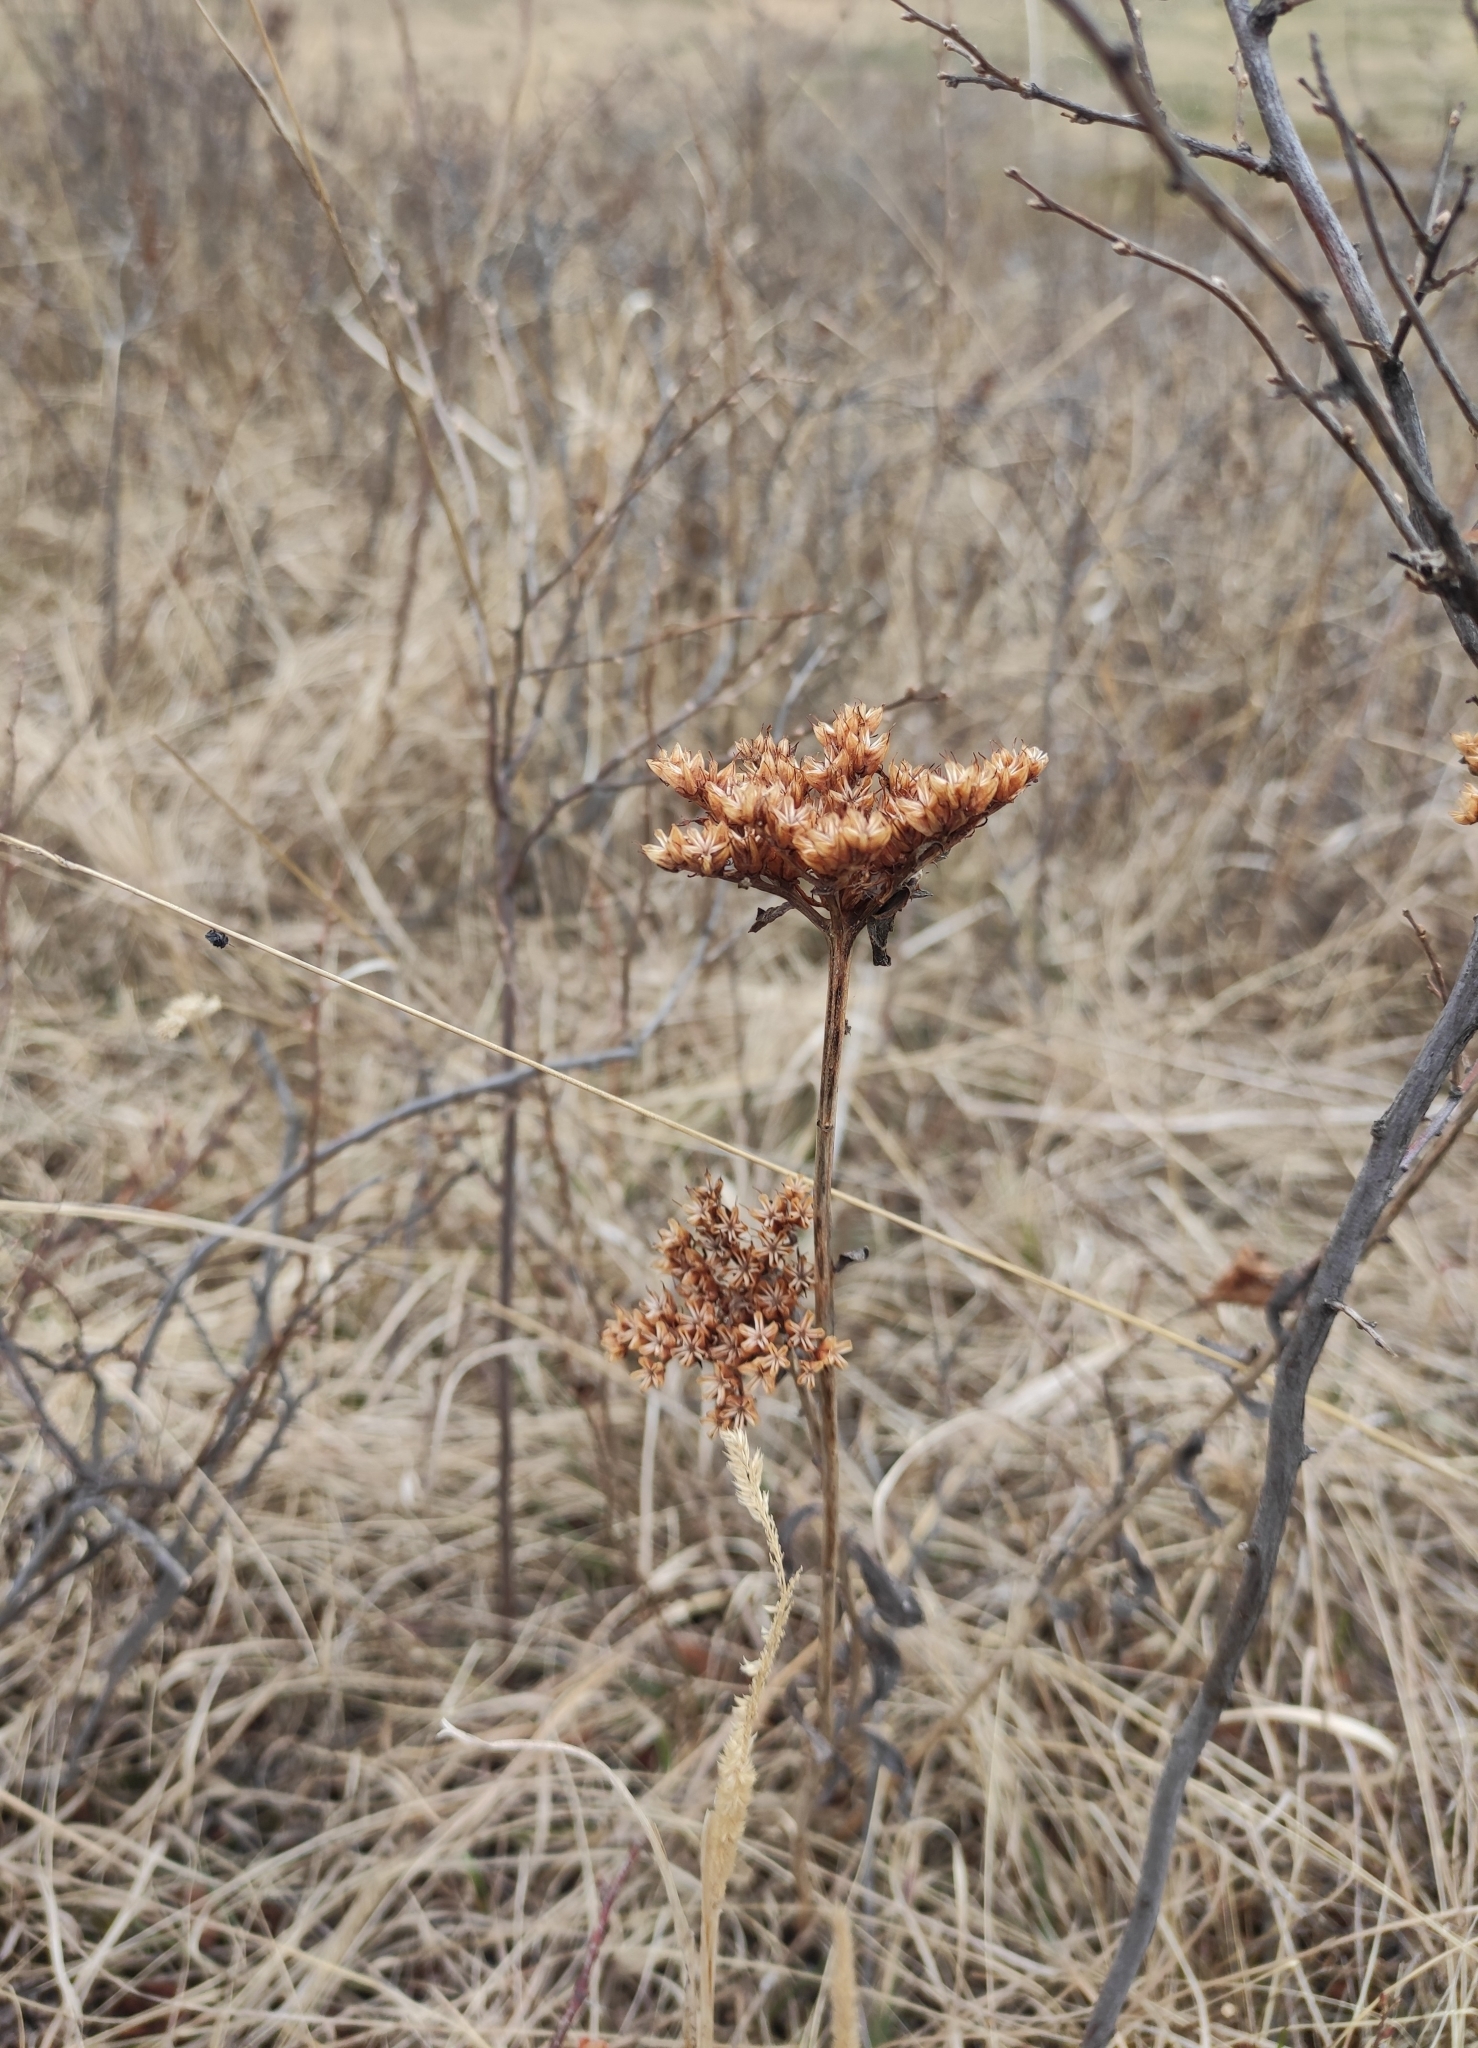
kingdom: Plantae
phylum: Tracheophyta
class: Magnoliopsida
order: Saxifragales
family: Crassulaceae
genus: Phedimus
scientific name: Phedimus aizoon
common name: Orpin aizoon
